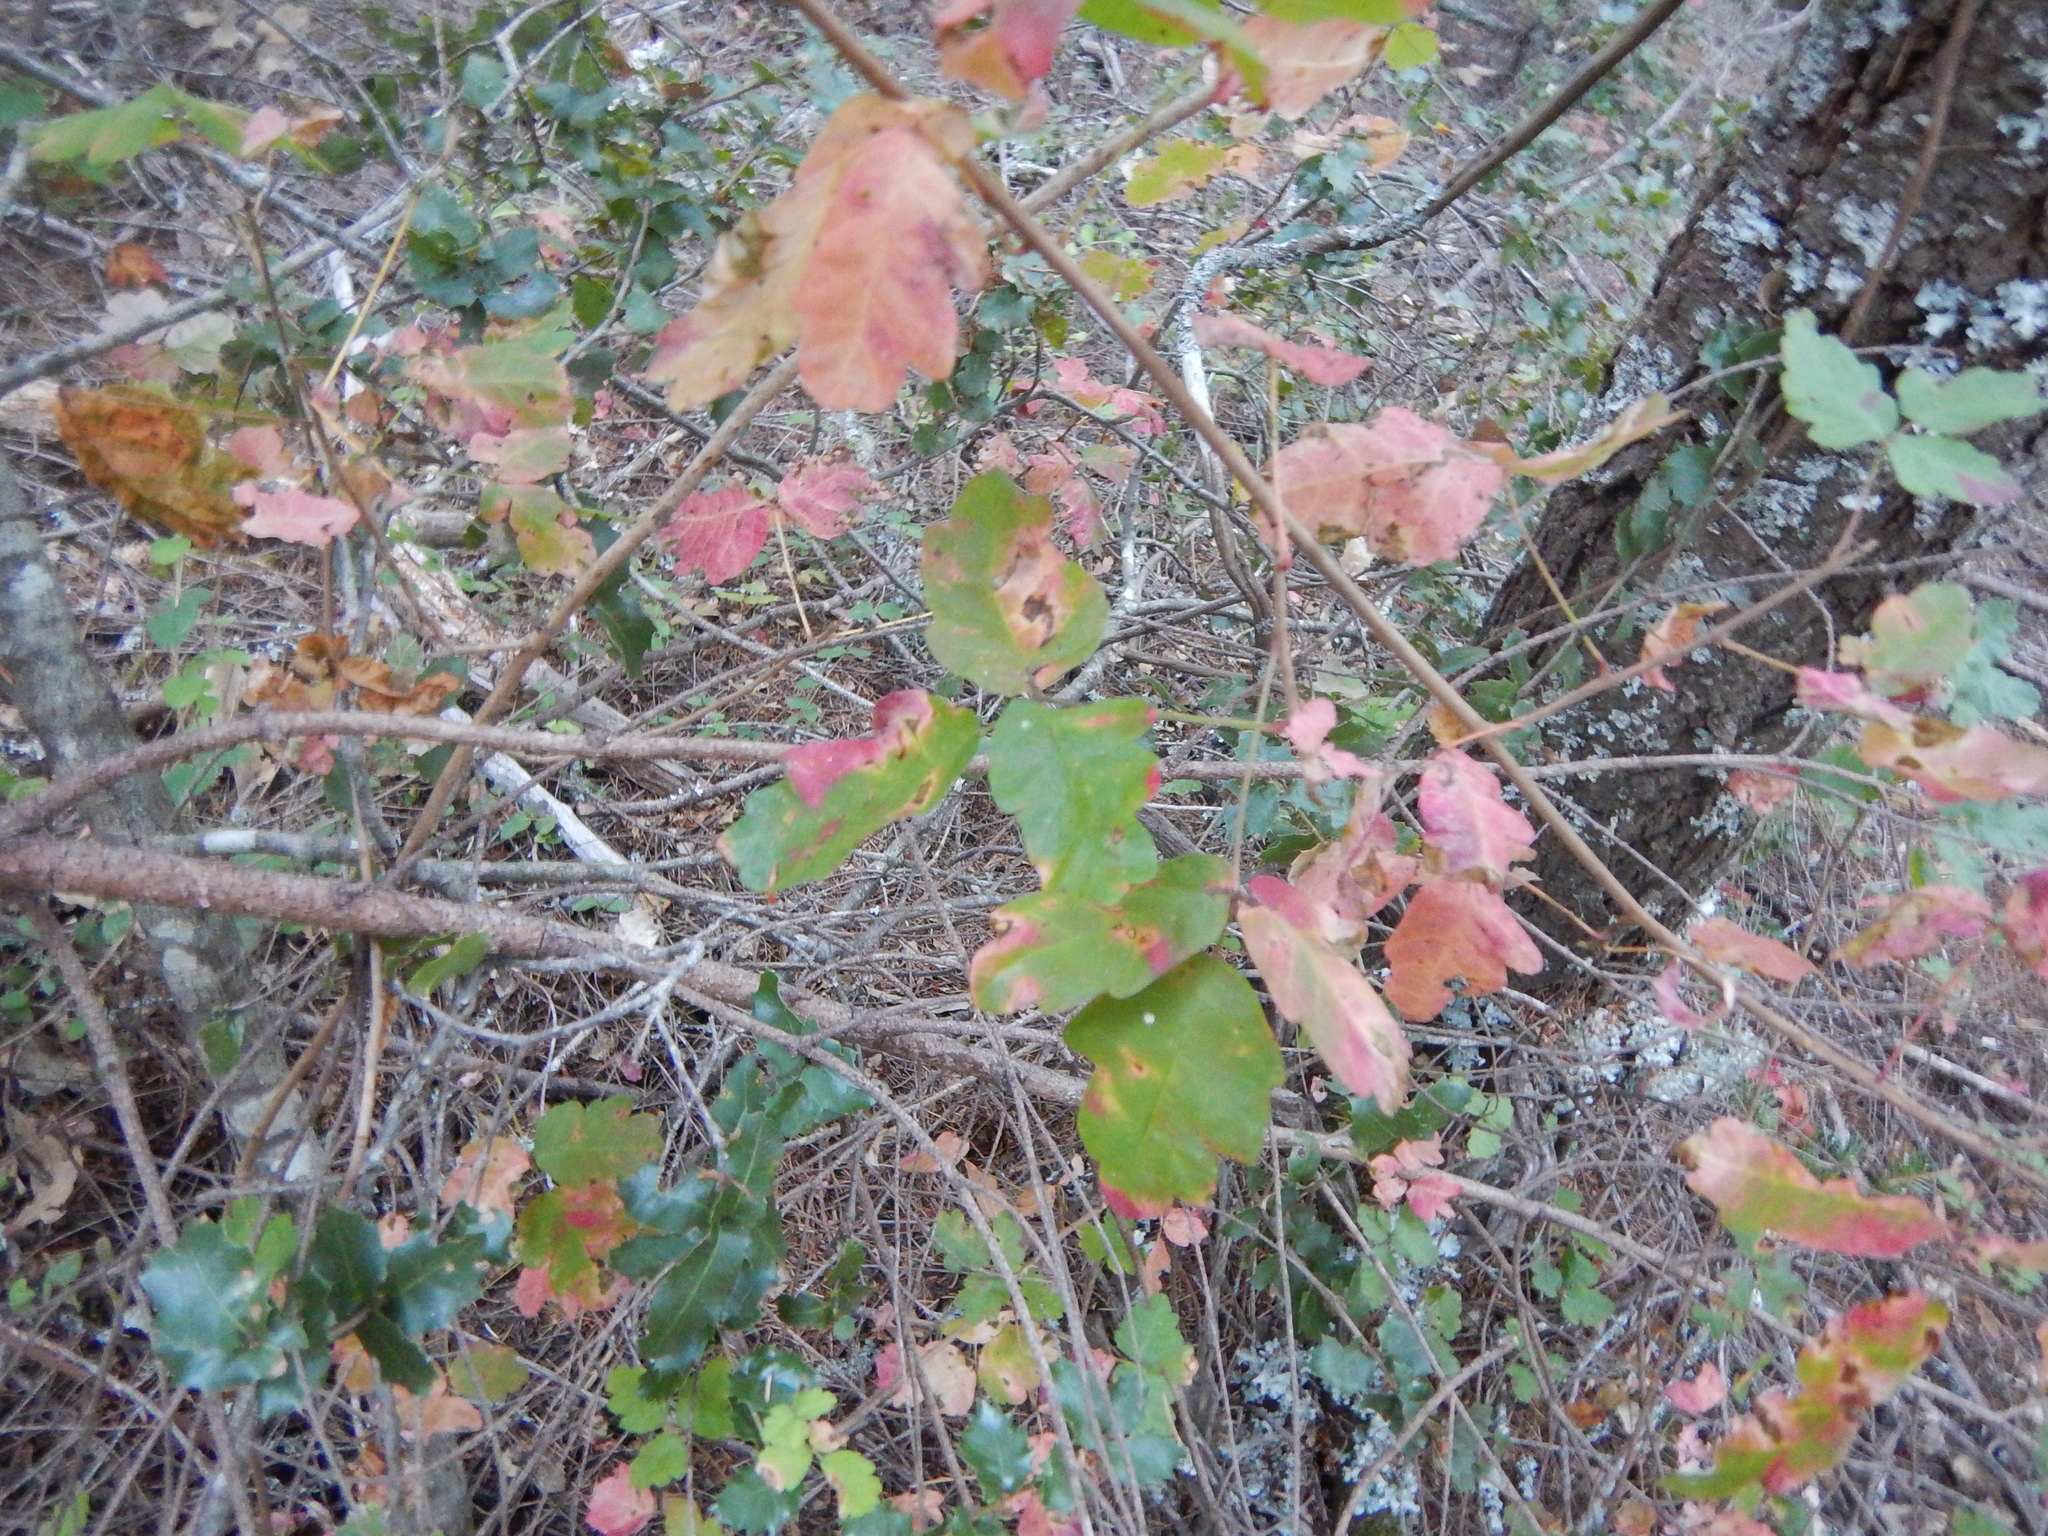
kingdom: Plantae
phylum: Tracheophyta
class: Magnoliopsida
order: Sapindales
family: Anacardiaceae
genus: Toxicodendron
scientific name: Toxicodendron diversilobum
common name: Pacific poison-oak
